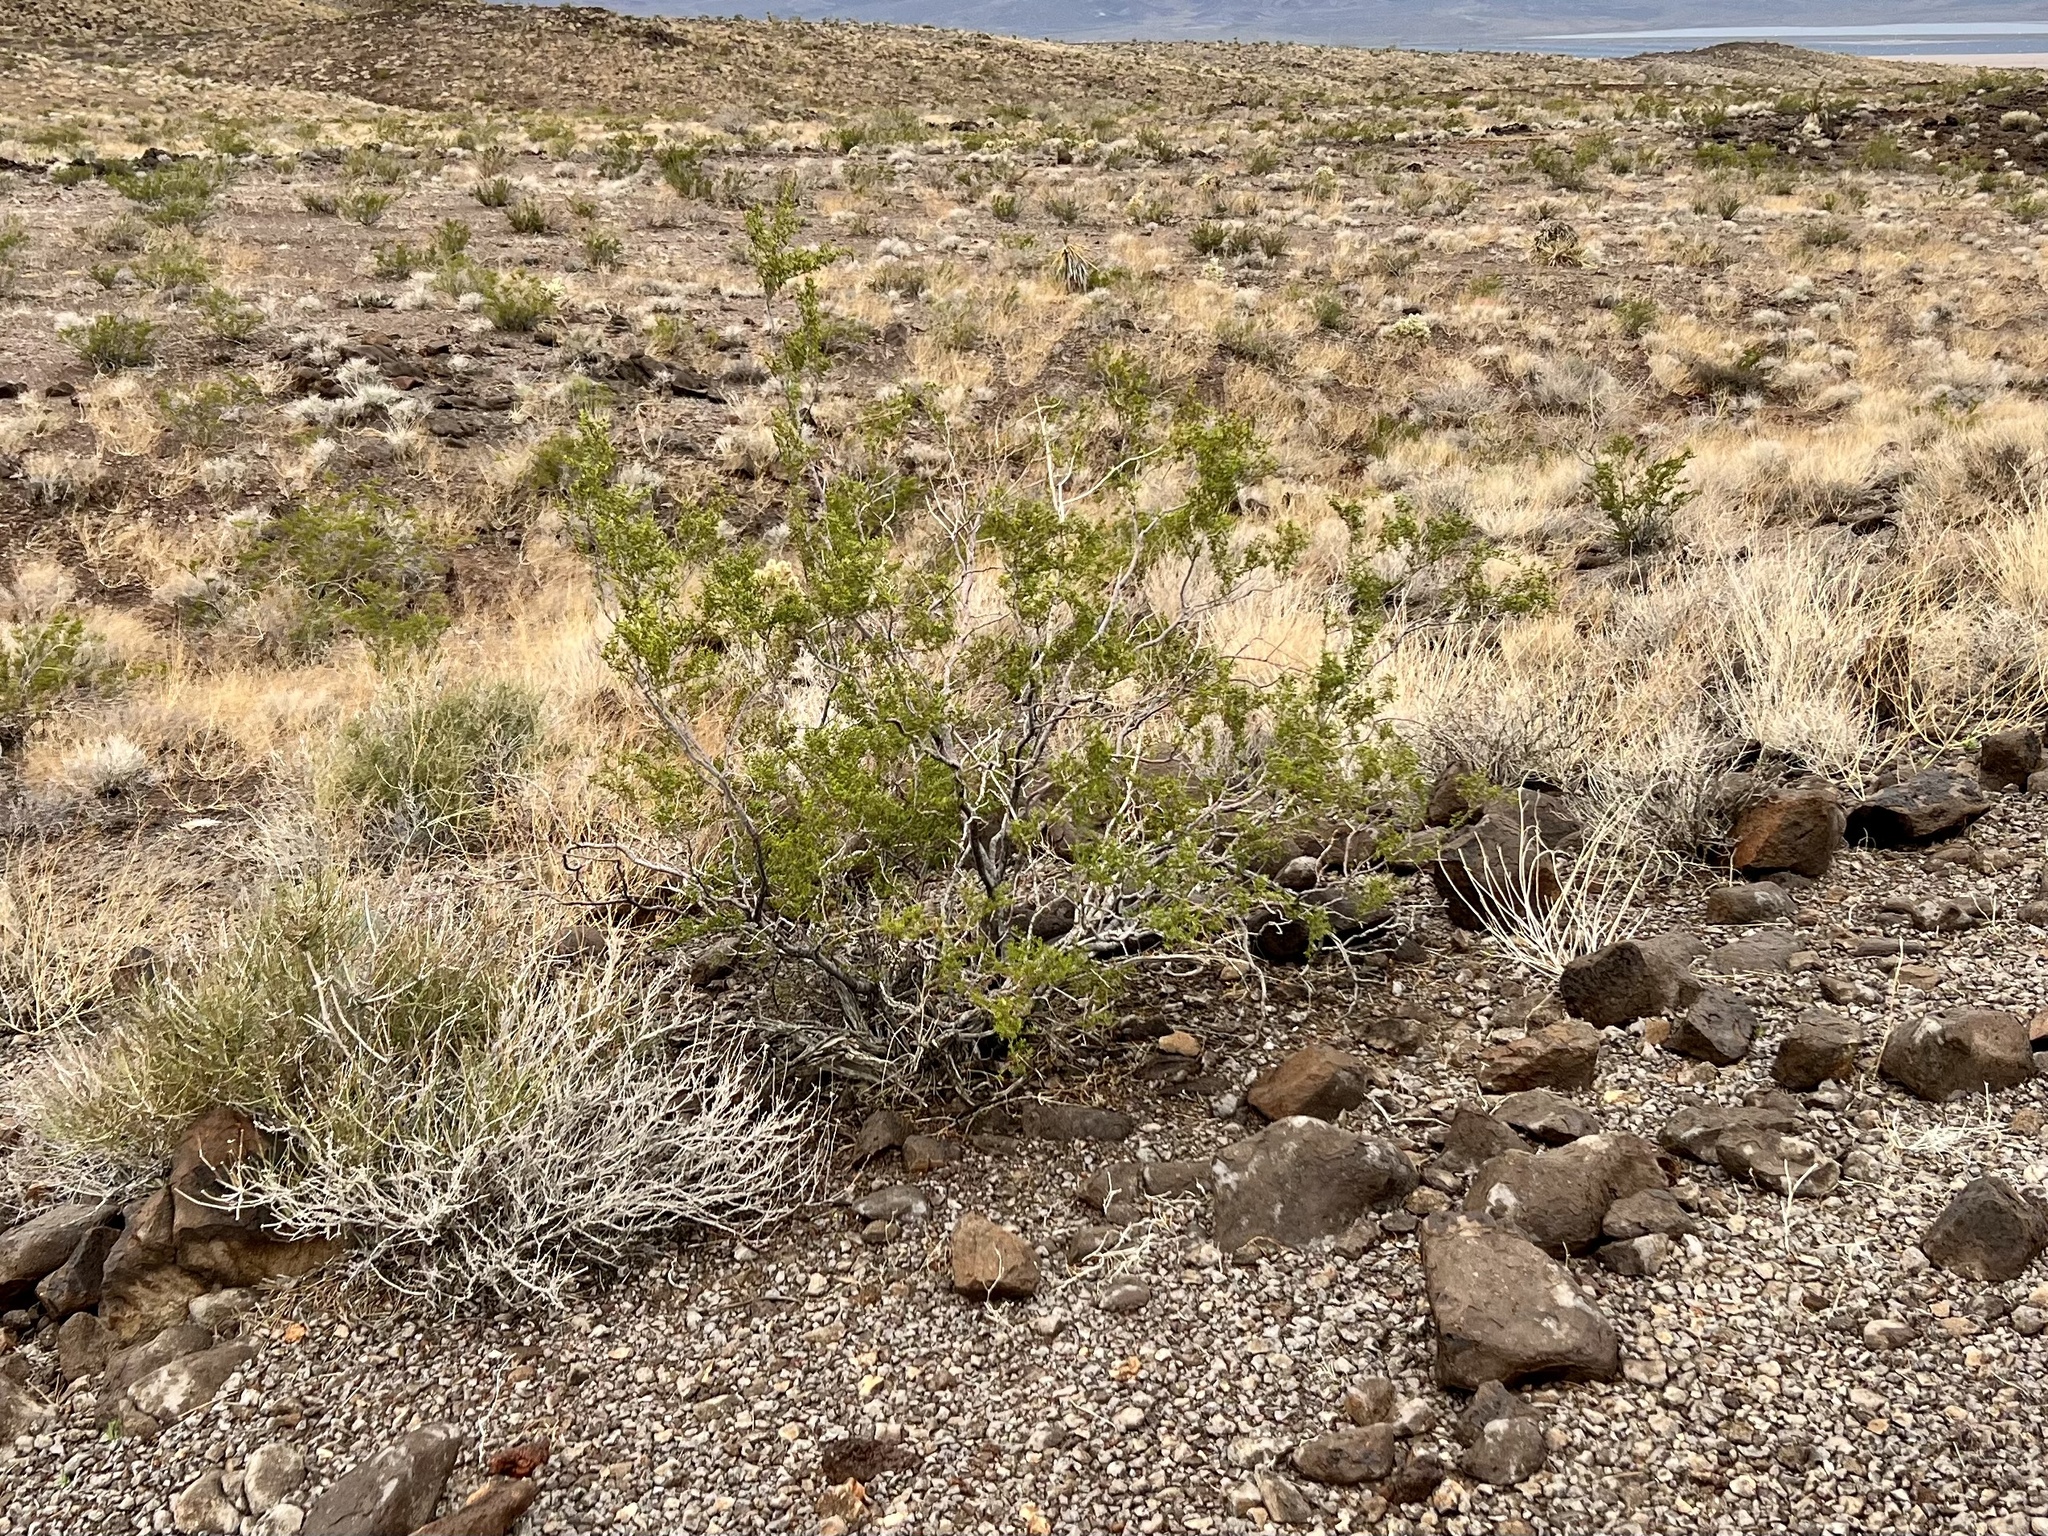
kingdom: Plantae
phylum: Tracheophyta
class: Magnoliopsida
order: Zygophyllales
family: Zygophyllaceae
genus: Larrea
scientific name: Larrea tridentata
